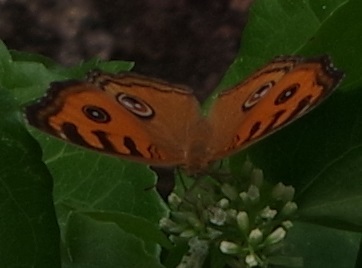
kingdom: Animalia
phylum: Arthropoda
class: Insecta
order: Lepidoptera
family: Nymphalidae
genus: Junonia
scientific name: Junonia almana
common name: Peacock pansy
